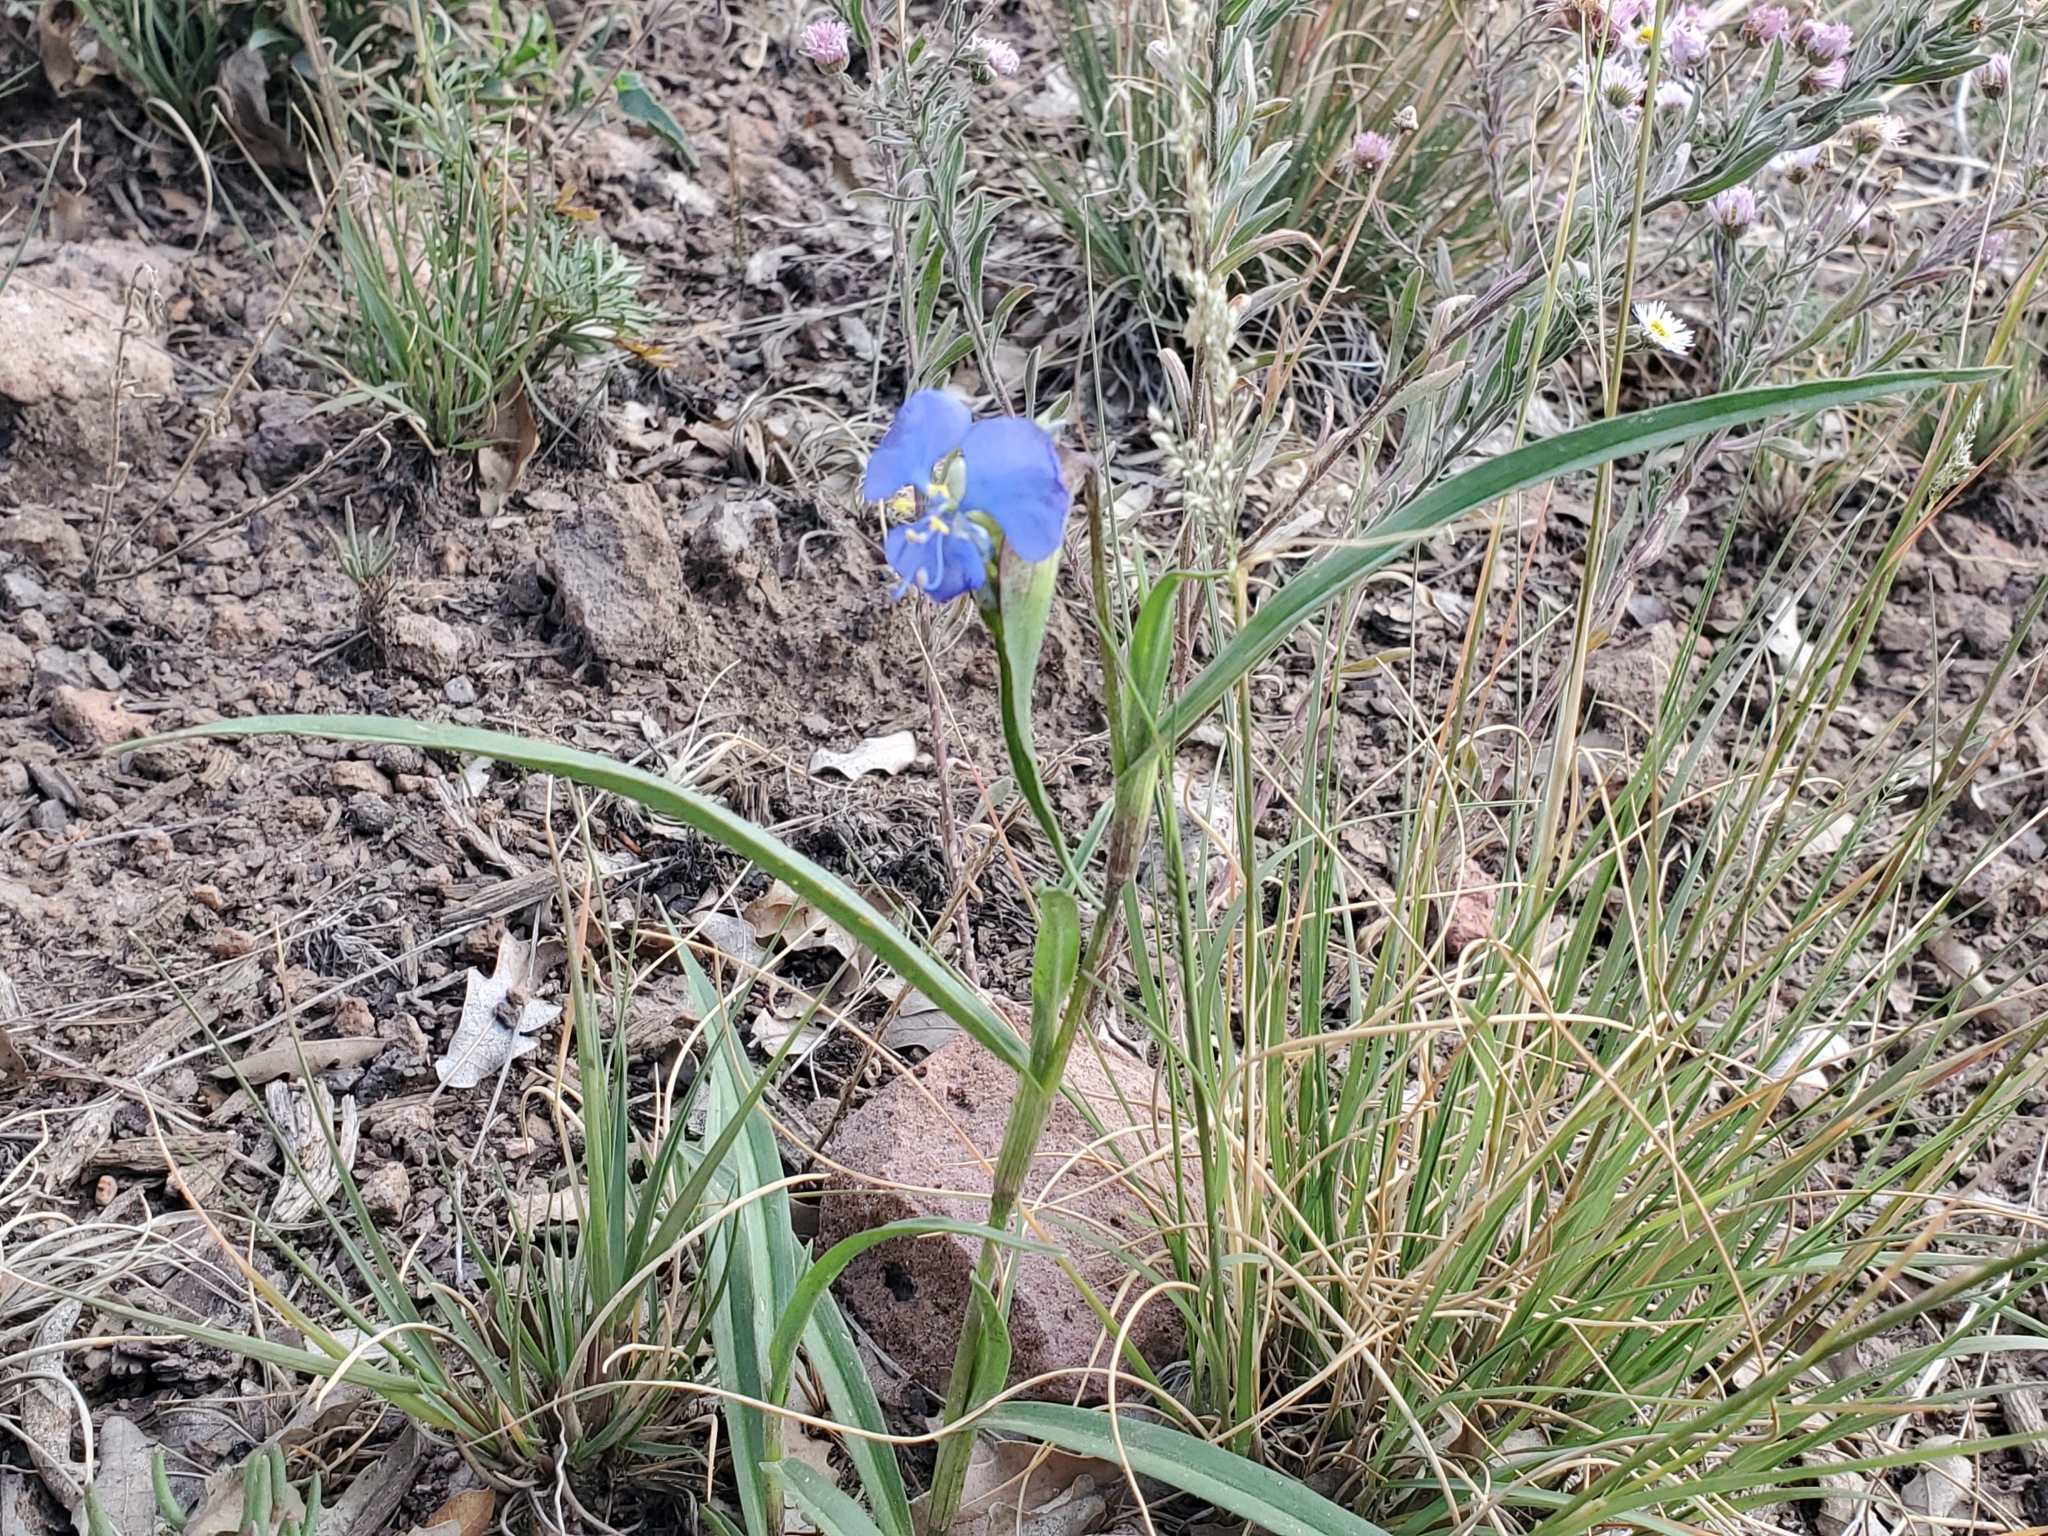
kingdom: Plantae
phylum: Tracheophyta
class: Liliopsida
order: Commelinales
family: Commelinaceae
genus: Commelina
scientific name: Commelina dianthifolia
